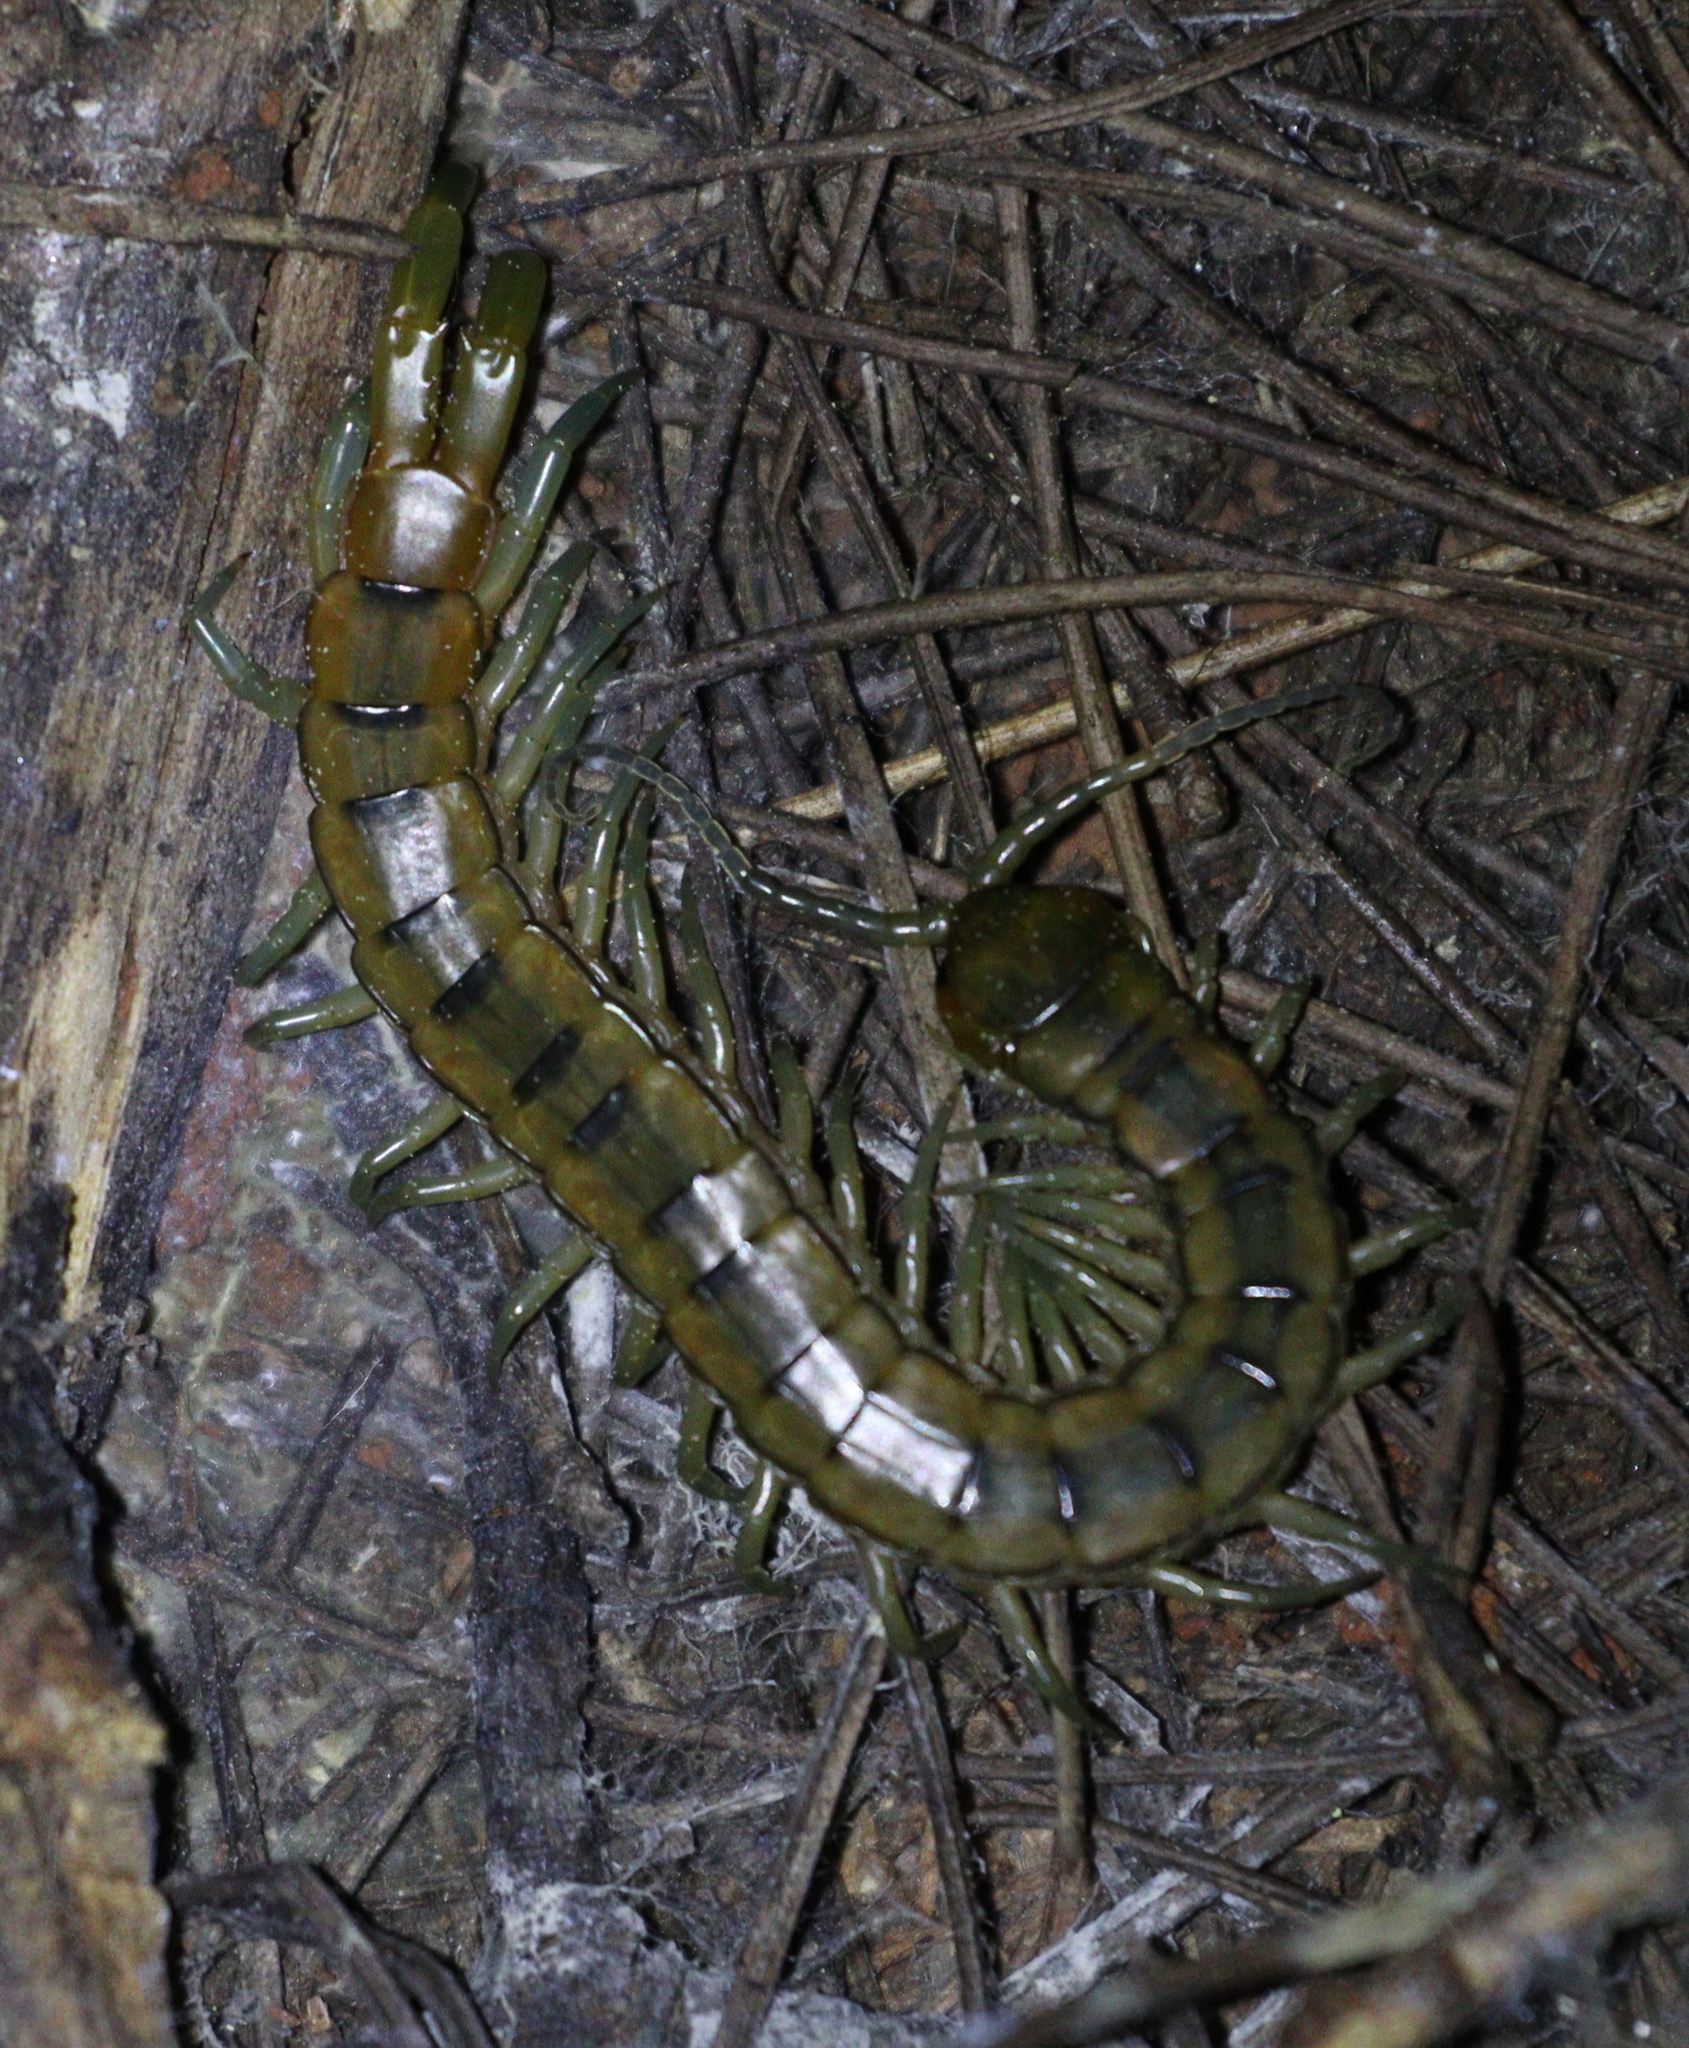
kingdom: Animalia
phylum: Arthropoda
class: Chilopoda
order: Scolopendromorpha
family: Scolopendridae
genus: Scolopendra
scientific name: Scolopendra cingulata
